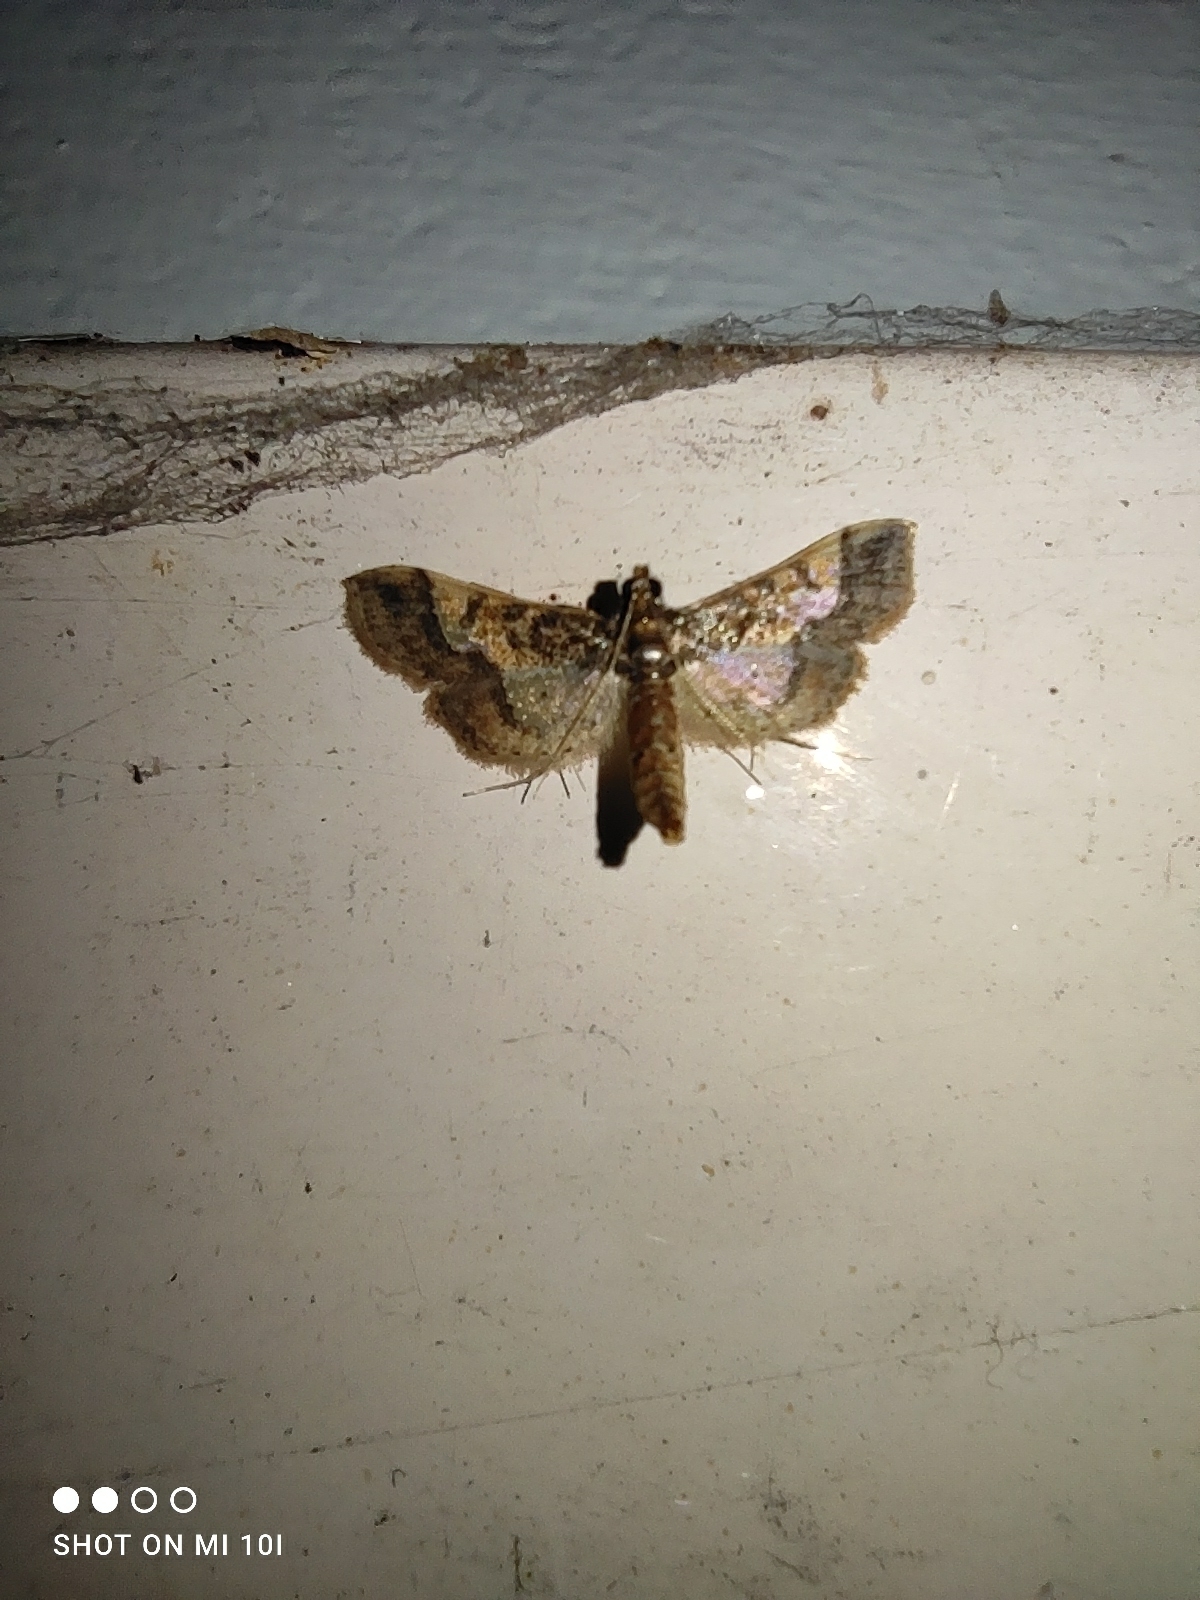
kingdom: Animalia
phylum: Arthropoda
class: Insecta
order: Lepidoptera
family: Crambidae
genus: Hydriris
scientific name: Hydriris ornatalis
